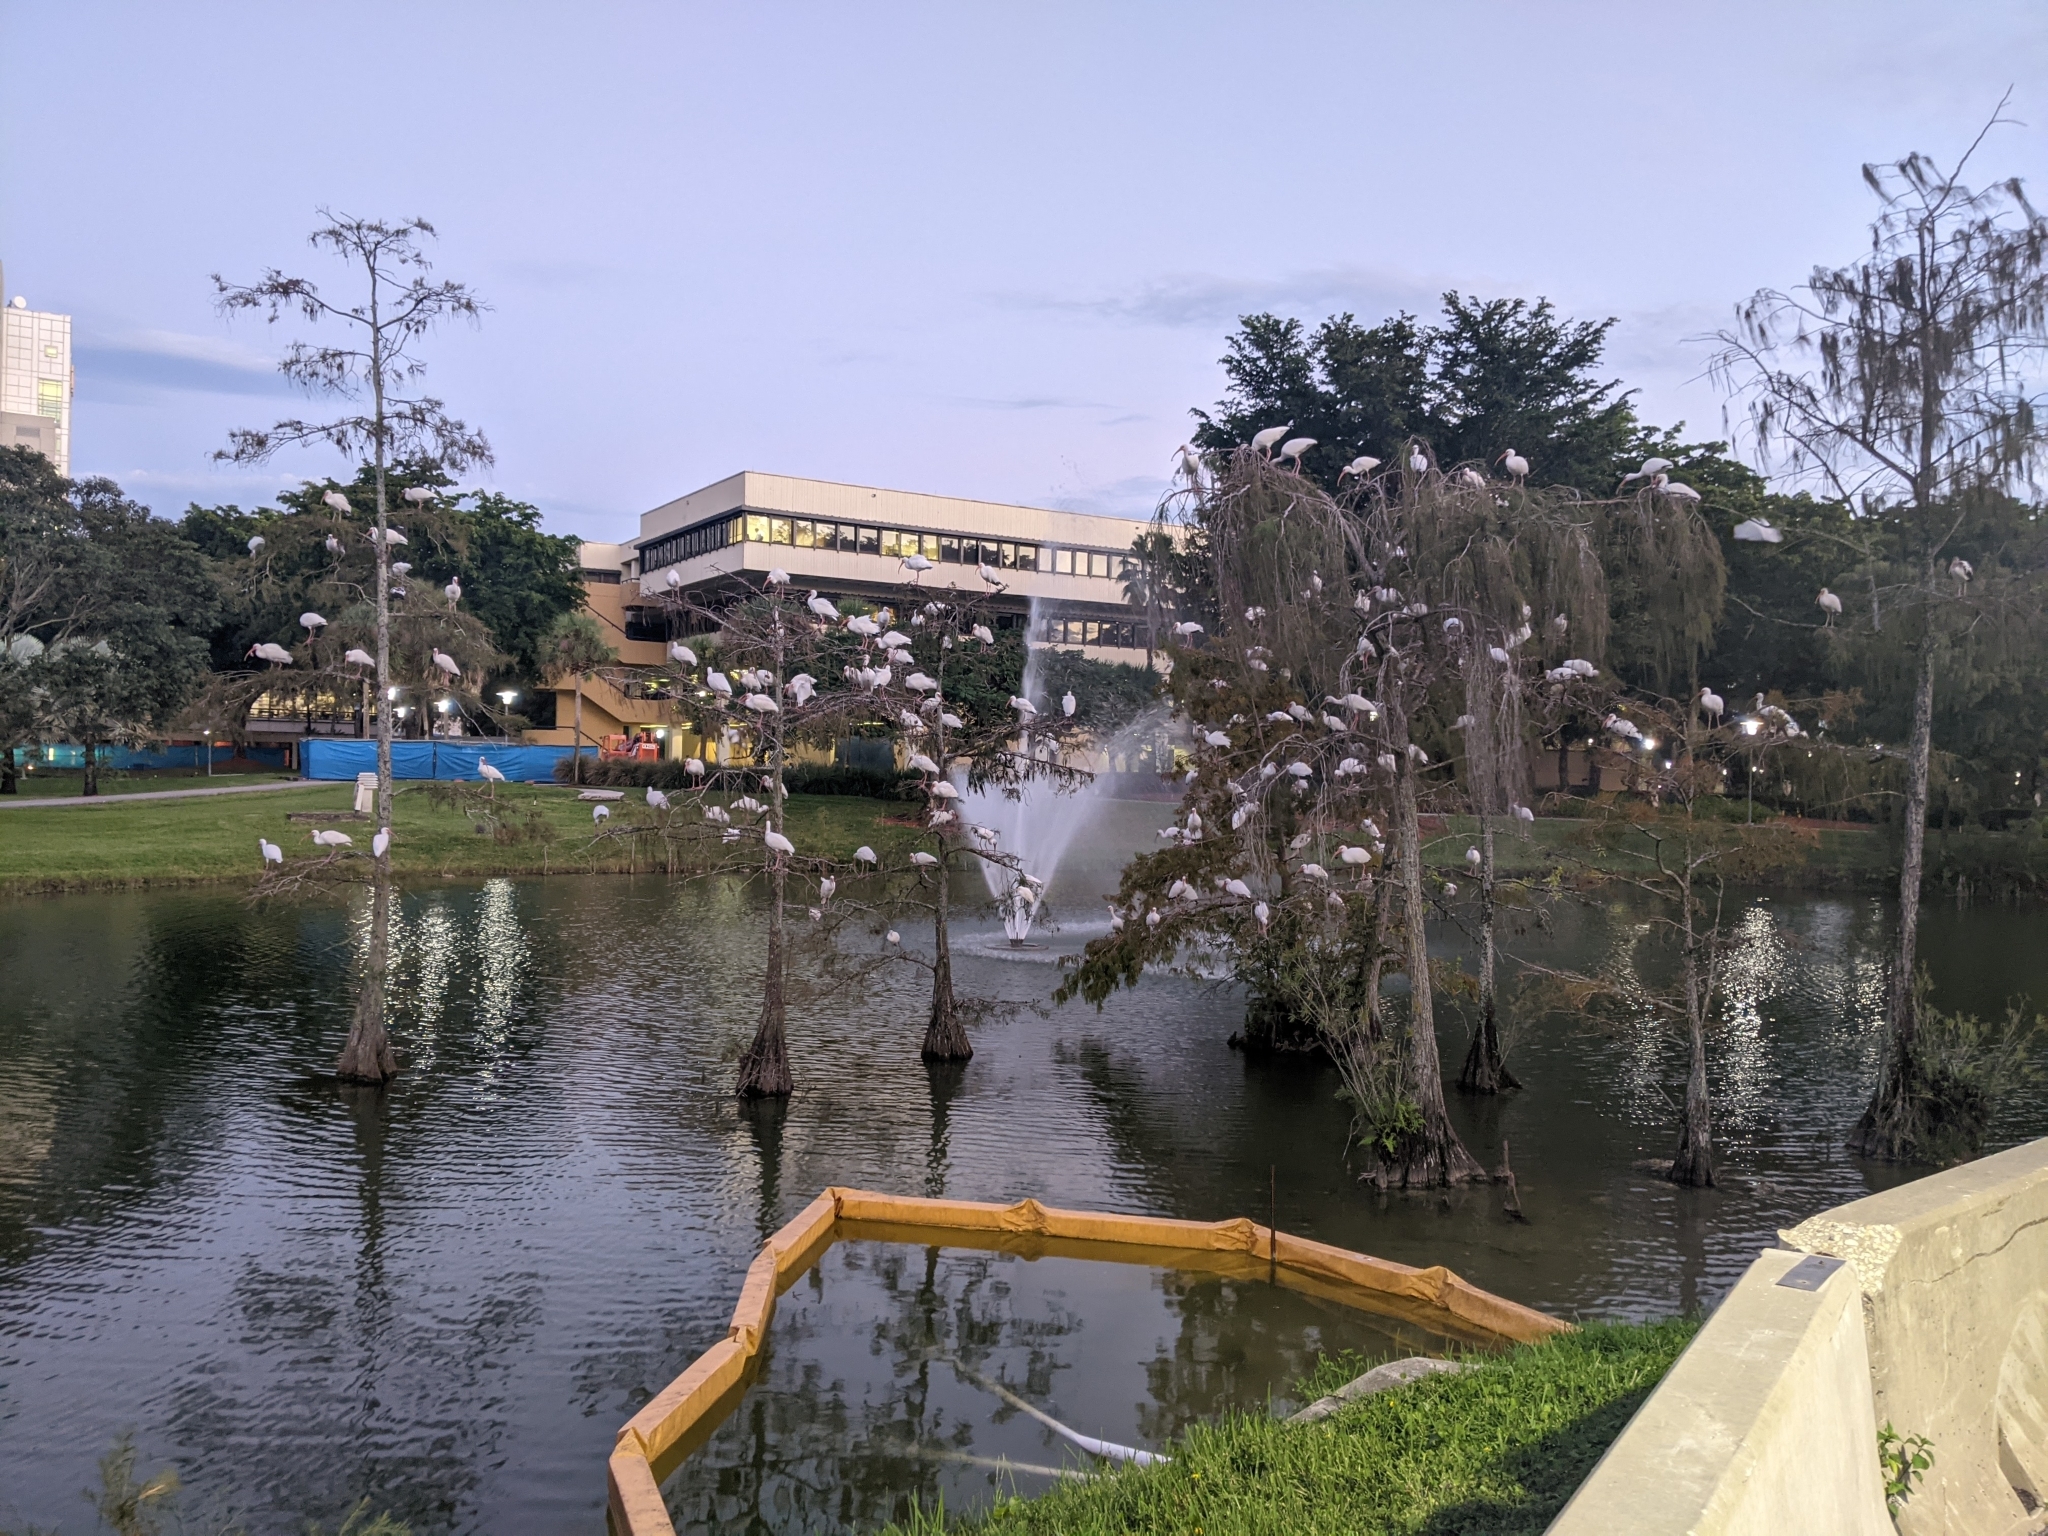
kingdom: Animalia
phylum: Chordata
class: Aves
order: Pelecaniformes
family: Threskiornithidae
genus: Eudocimus
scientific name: Eudocimus albus
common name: White ibis
